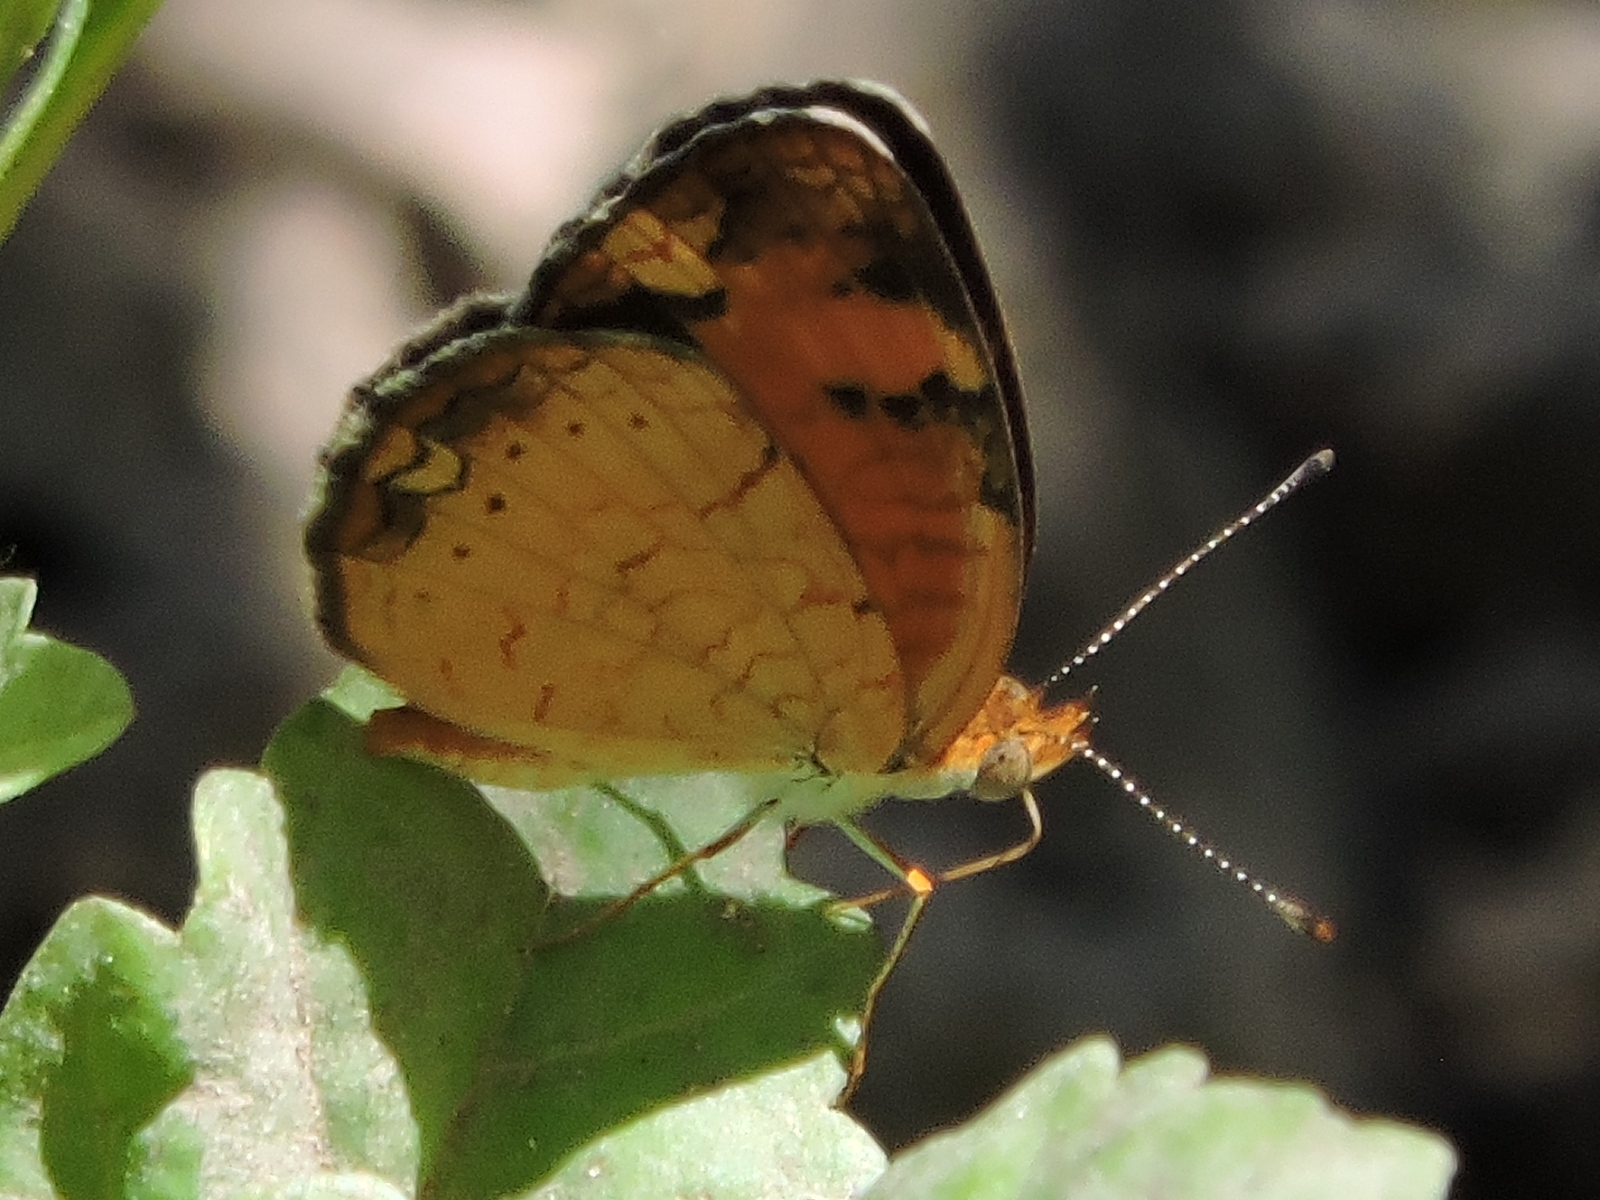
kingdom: Animalia
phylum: Arthropoda
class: Insecta
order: Lepidoptera
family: Nymphalidae
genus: Phyciodes
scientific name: Phyciodes tharos
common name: Pearl crescent
